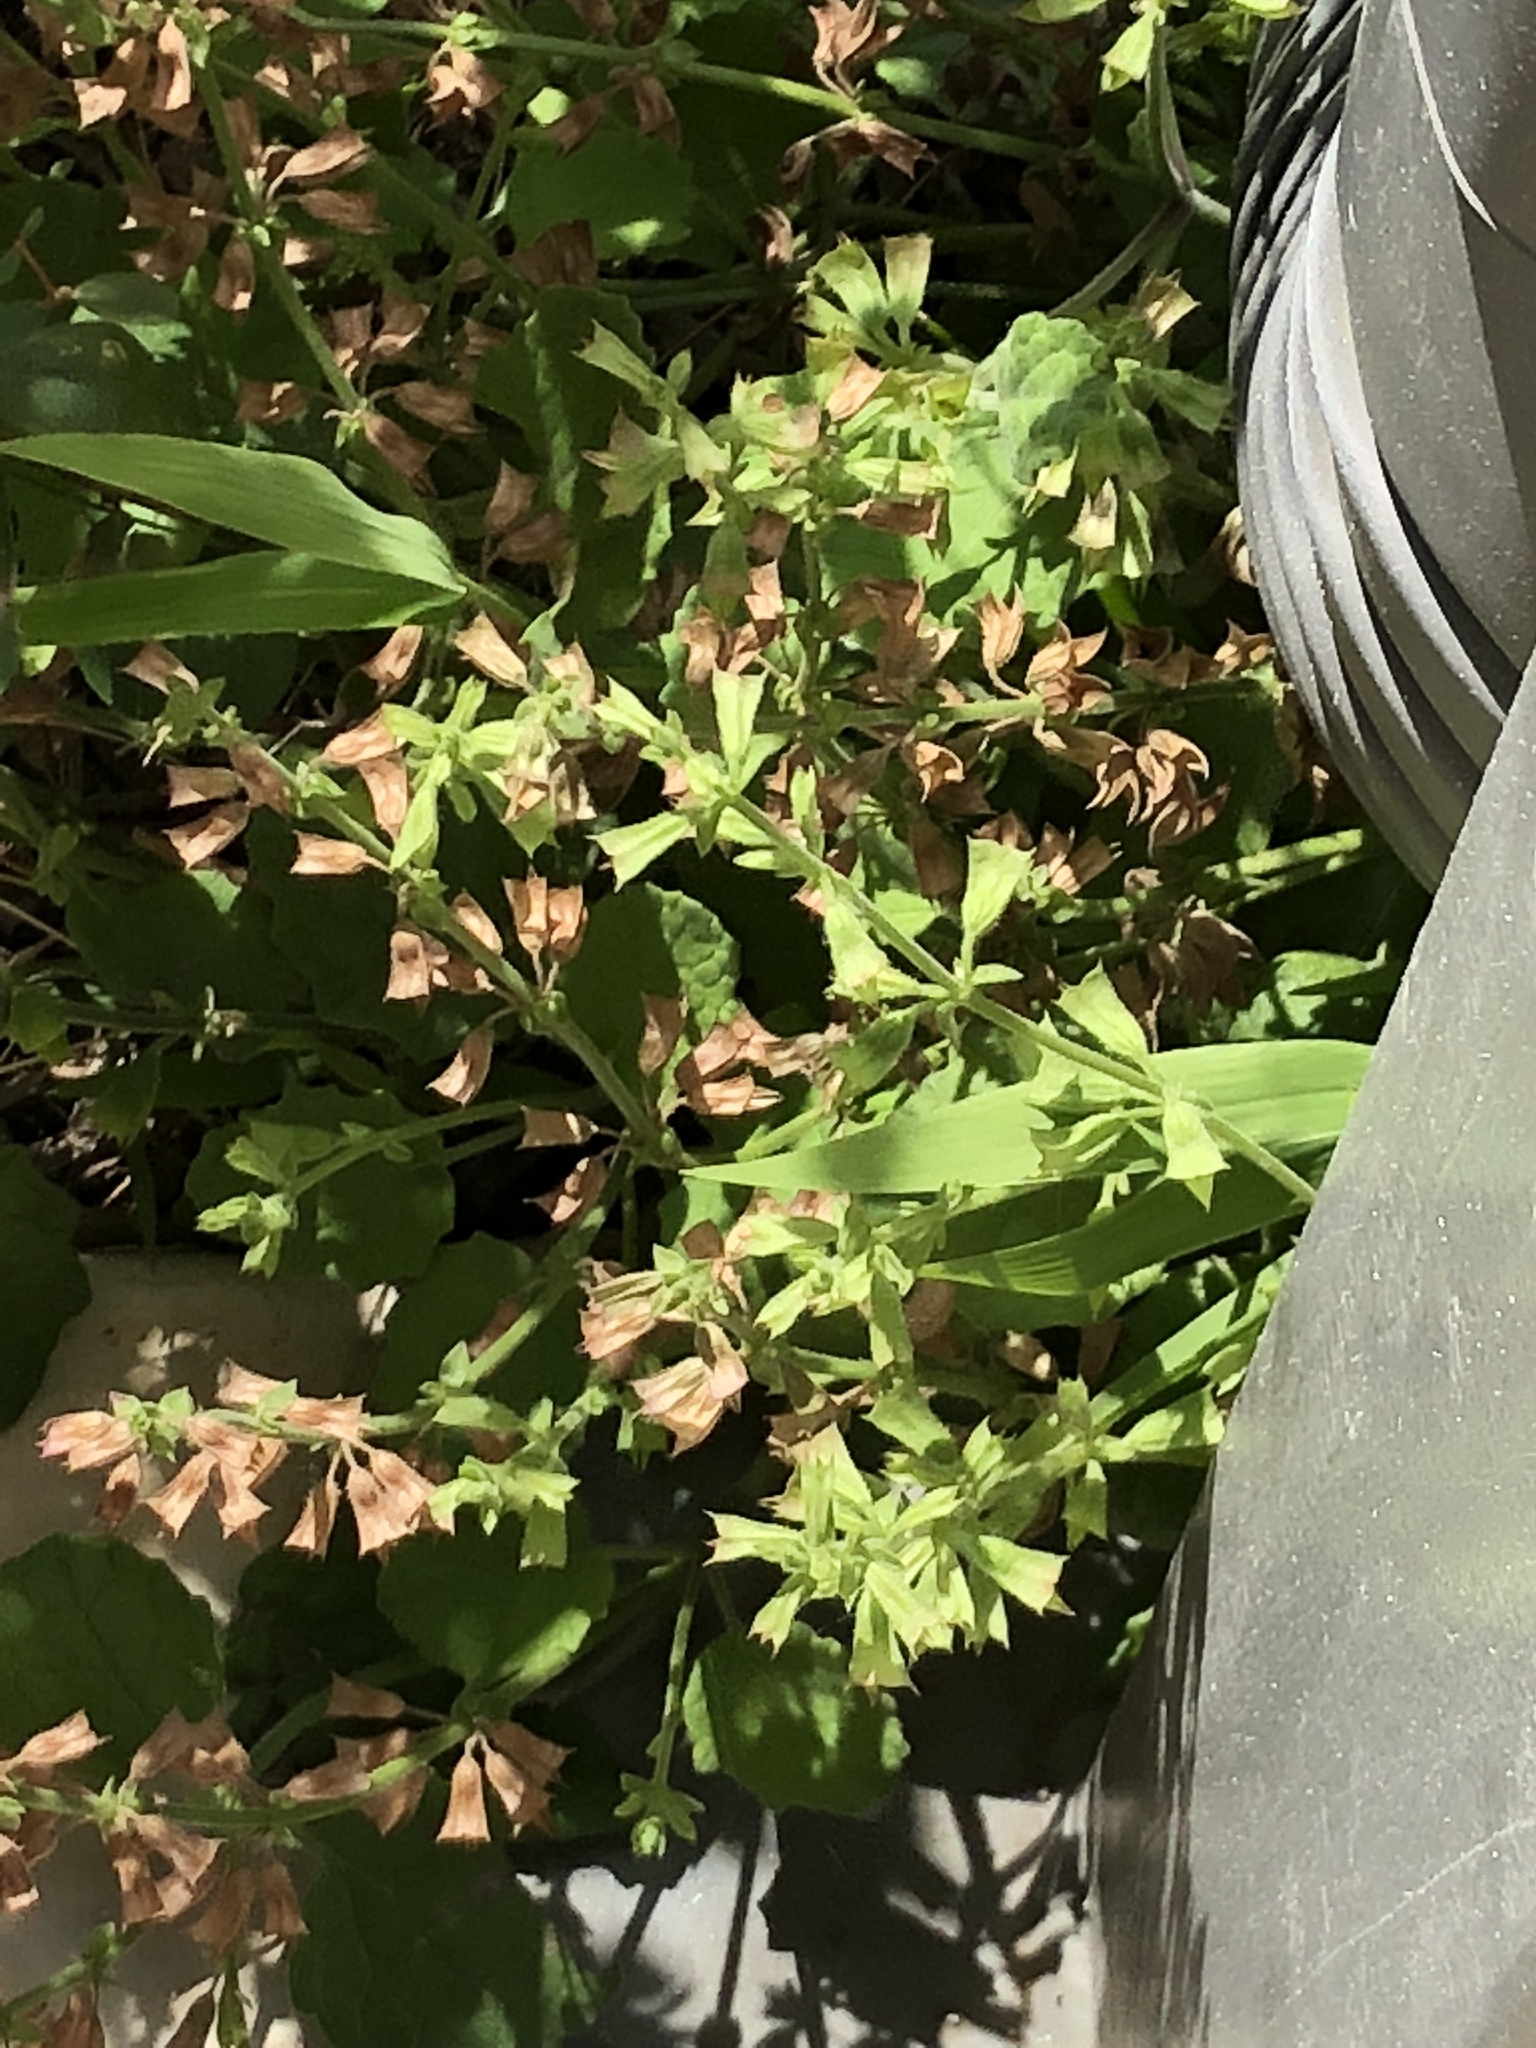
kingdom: Plantae
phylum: Tracheophyta
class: Magnoliopsida
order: Lamiales
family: Lamiaceae
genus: Salvia
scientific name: Salvia lyrata
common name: Cancerweed
